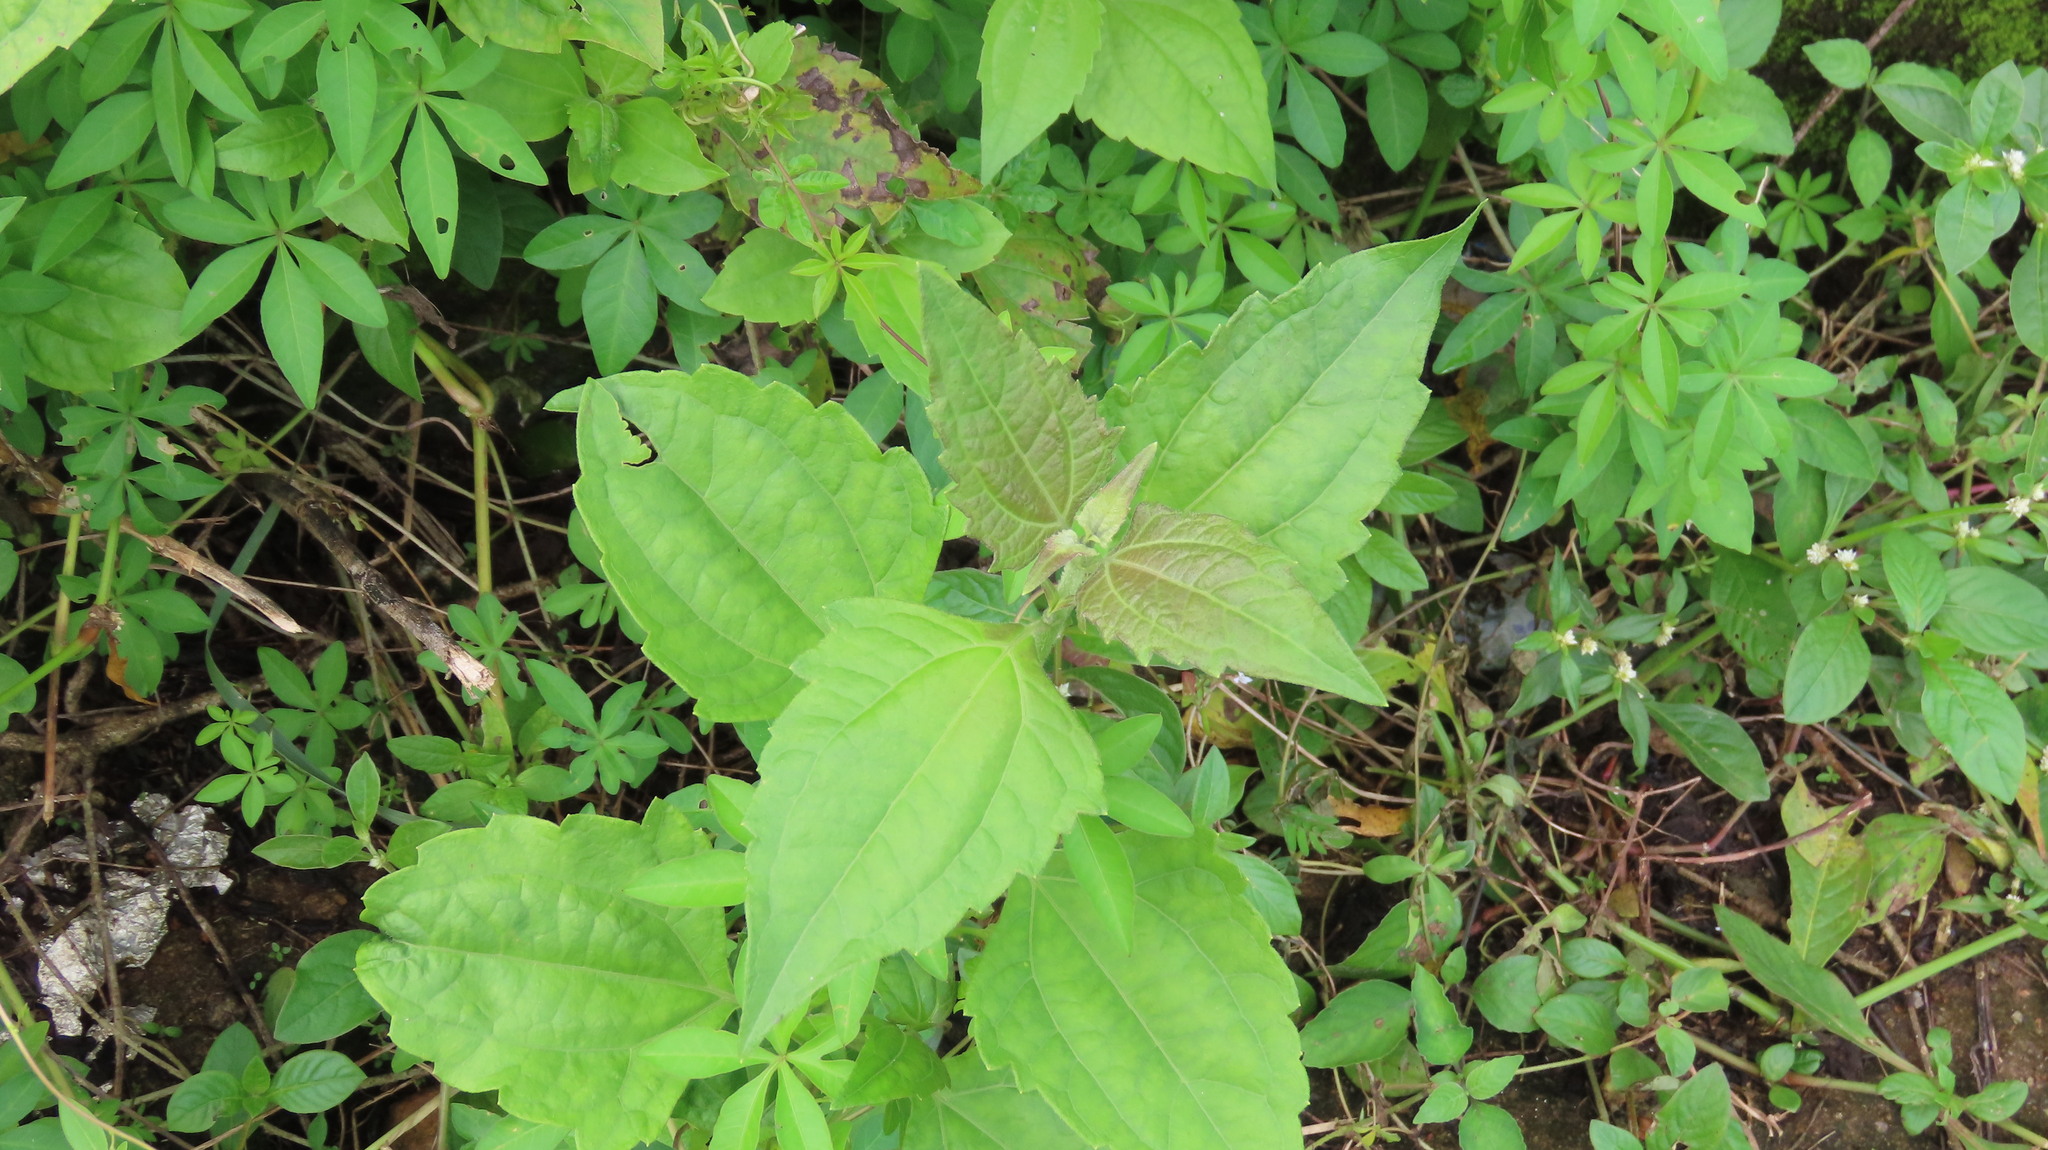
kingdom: Plantae
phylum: Tracheophyta
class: Magnoliopsida
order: Asterales
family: Asteraceae
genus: Chromolaena
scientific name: Chromolaena odorata
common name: Siamweed
